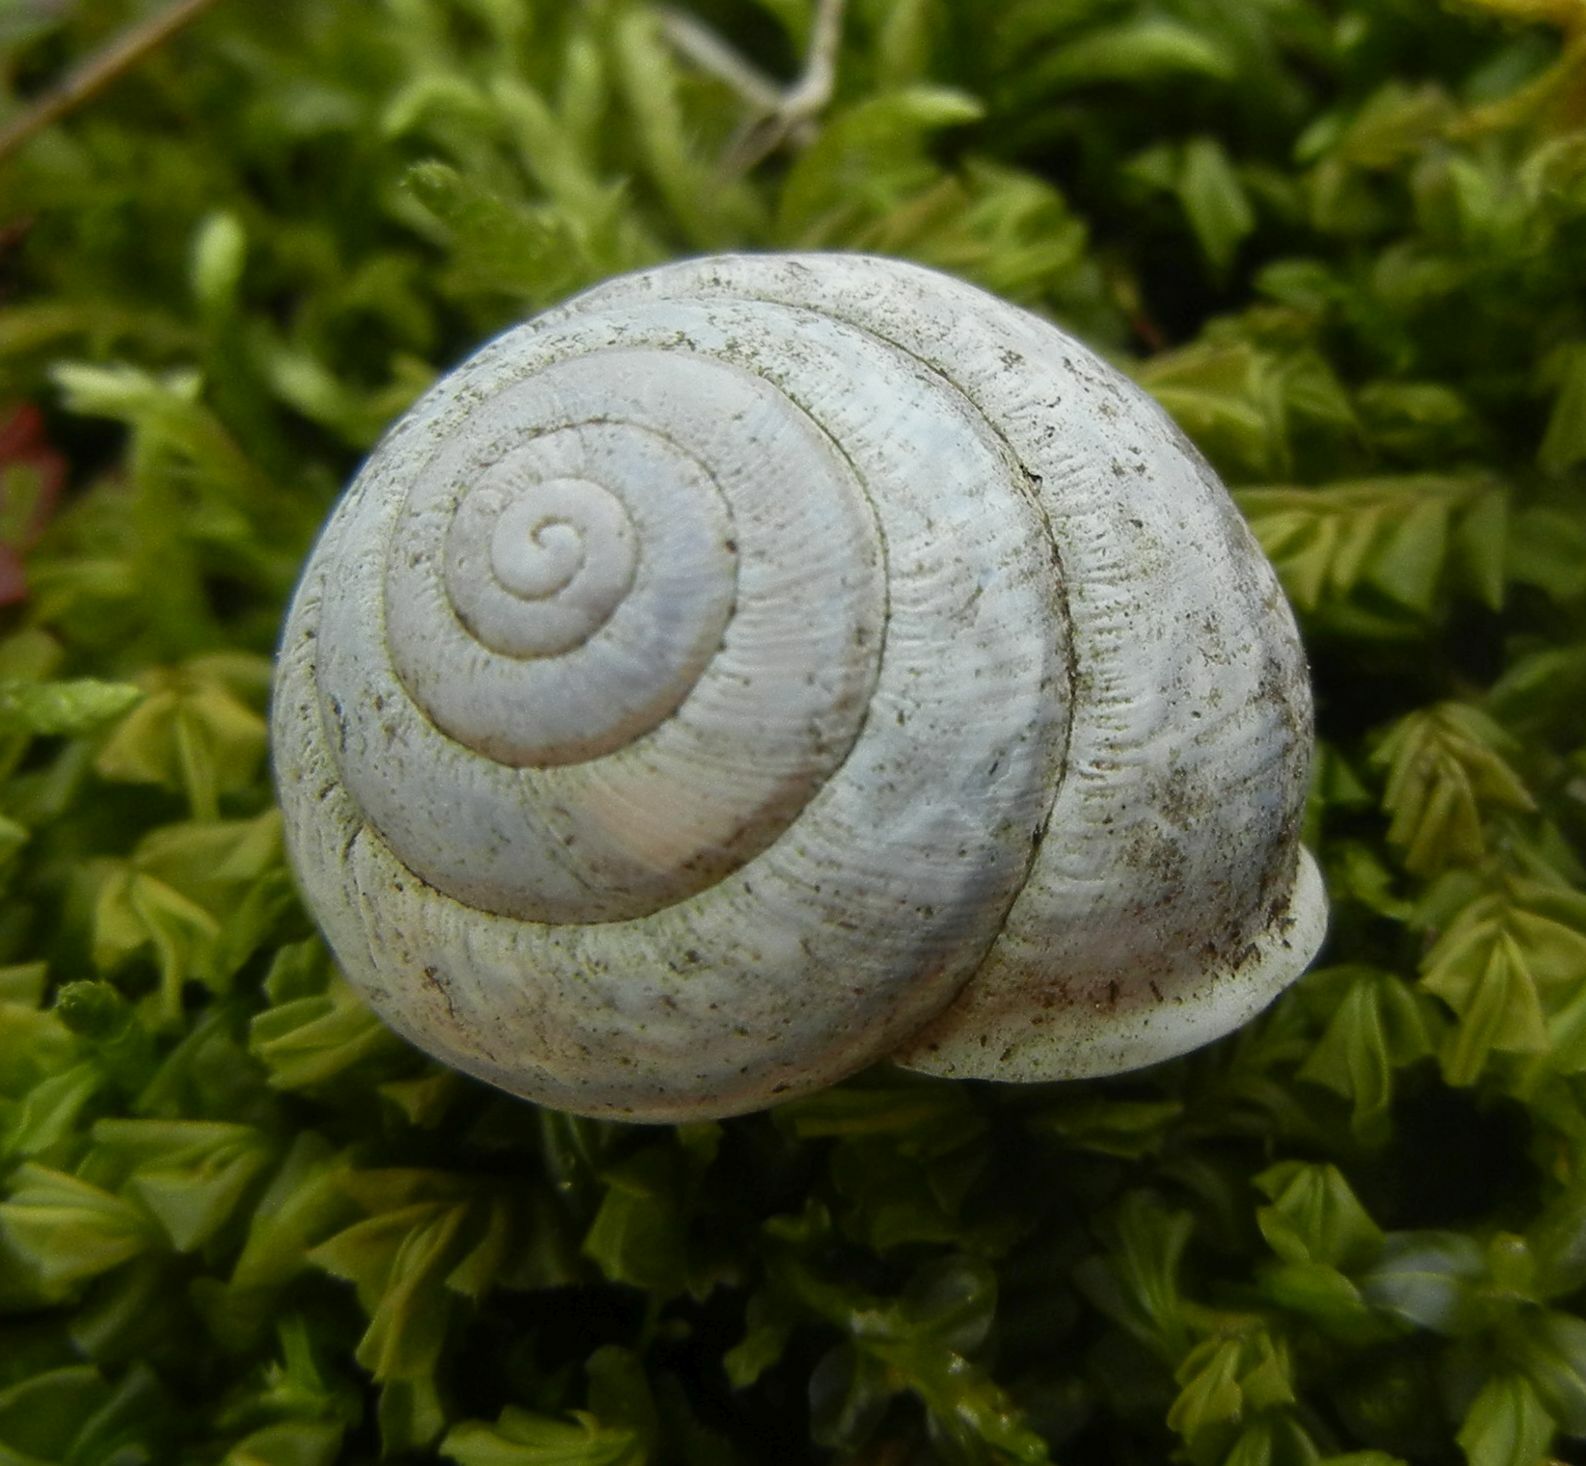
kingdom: Animalia
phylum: Mollusca
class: Gastropoda
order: Stylommatophora
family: Helicidae
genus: Arianta
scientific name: Arianta arbustorum
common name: Copse snail
